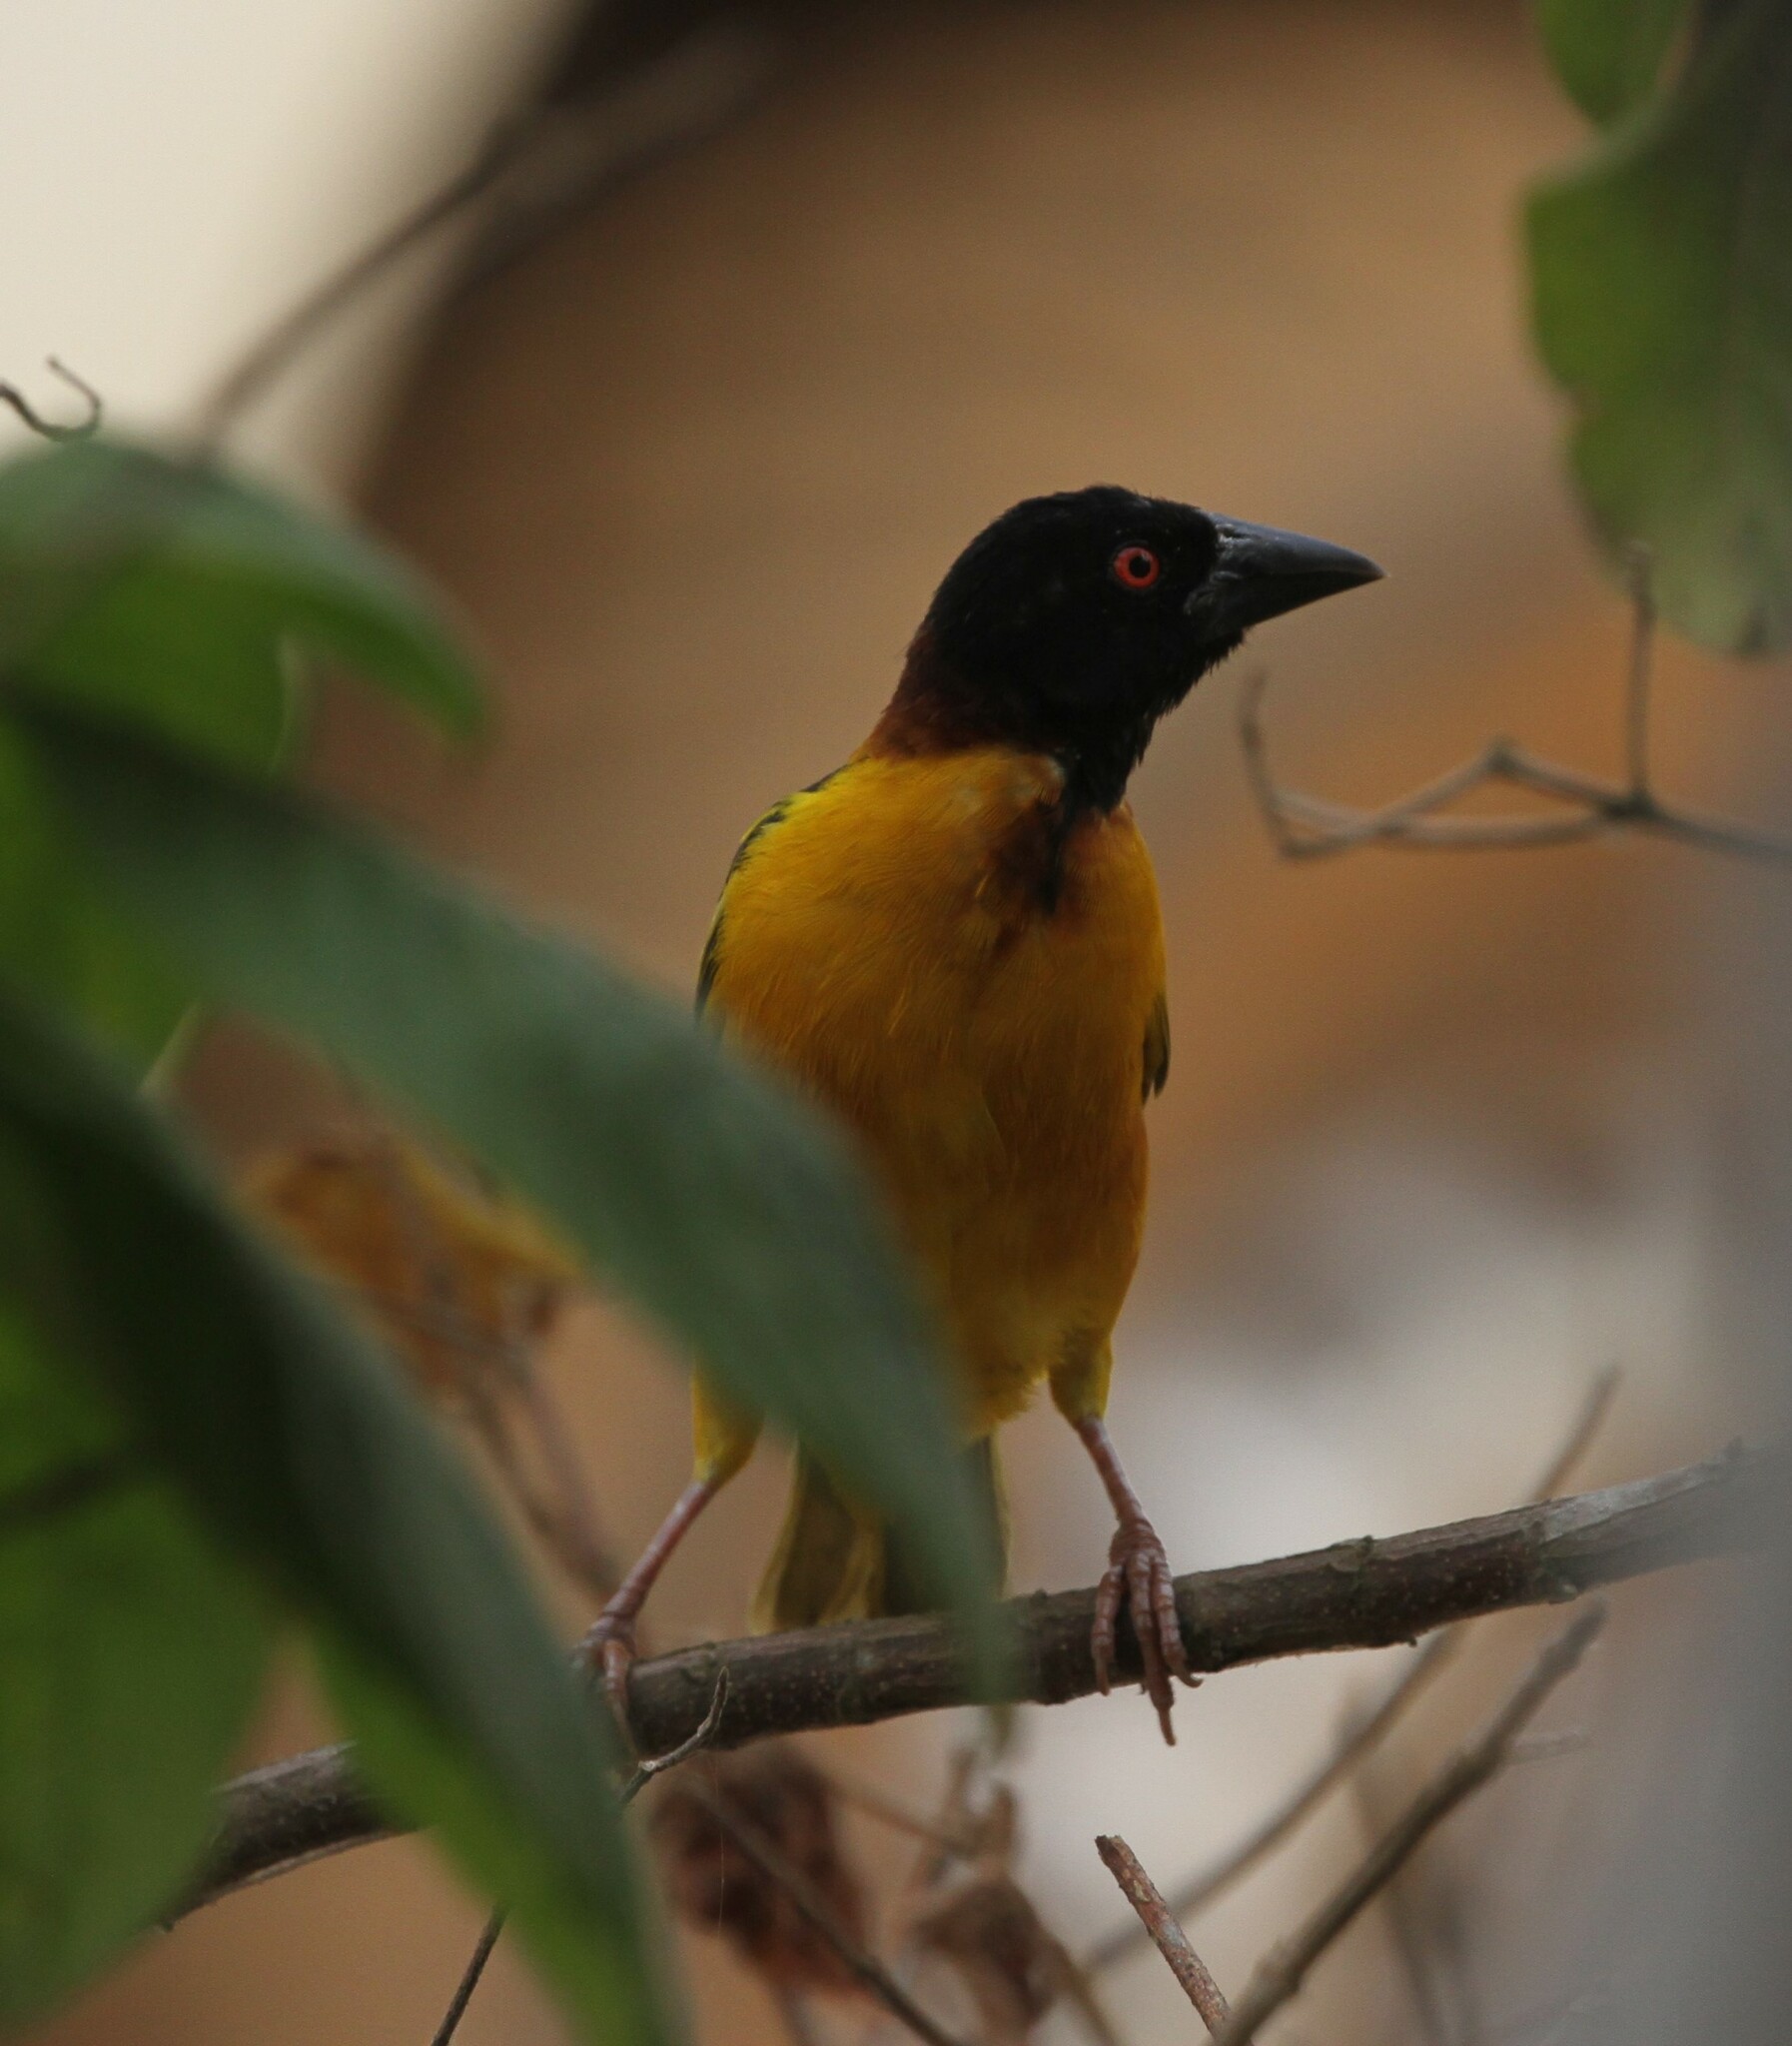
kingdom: Animalia
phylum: Chordata
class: Aves
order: Passeriformes
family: Ploceidae
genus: Ploceus
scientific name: Ploceus cucullatus
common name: Village weaver
